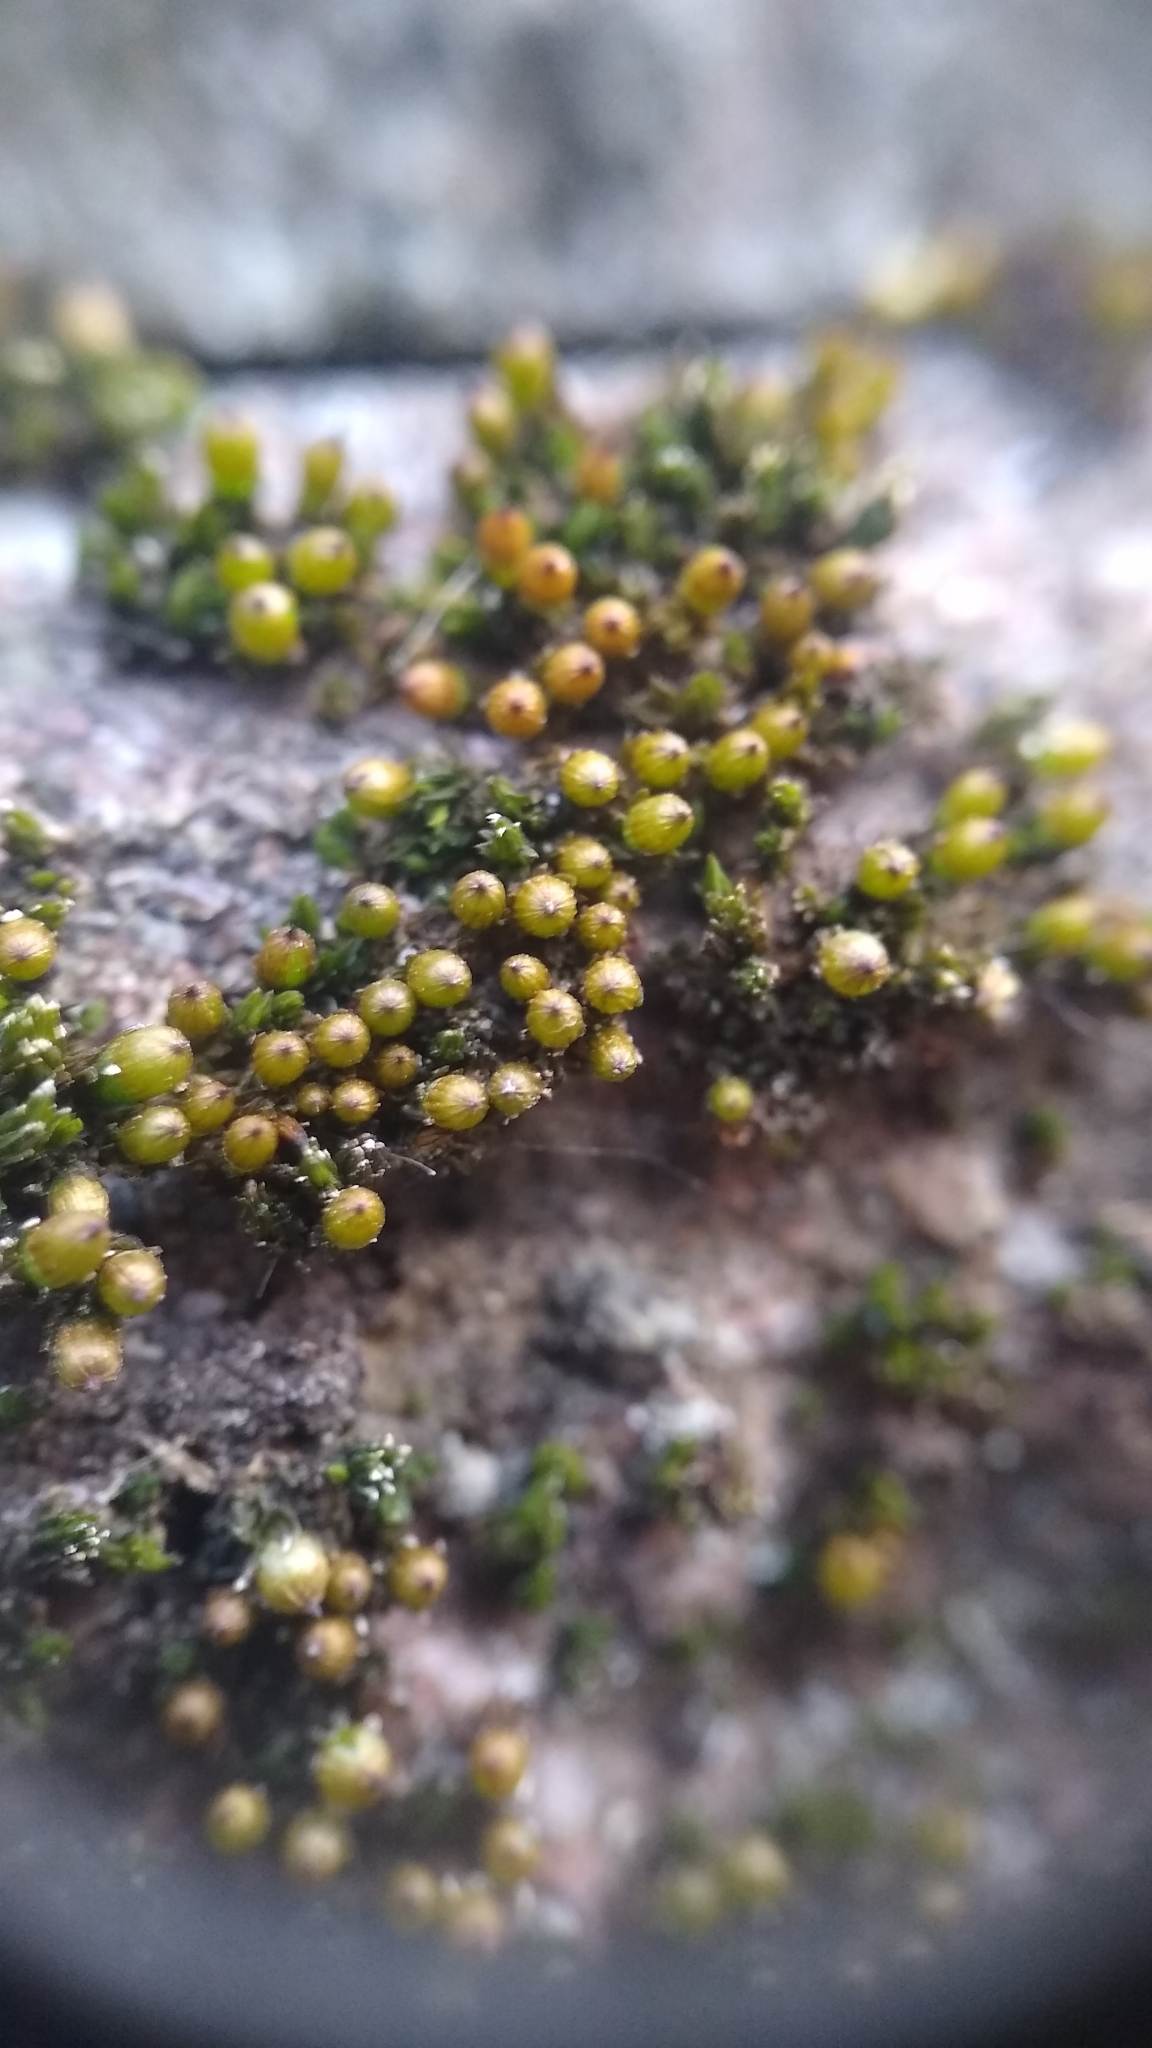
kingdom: Plantae
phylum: Bryophyta
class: Bryopsida
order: Orthotrichales
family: Orthotrichaceae
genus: Orthotrichum
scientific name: Orthotrichum stellatum
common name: Starlike bristle moss
